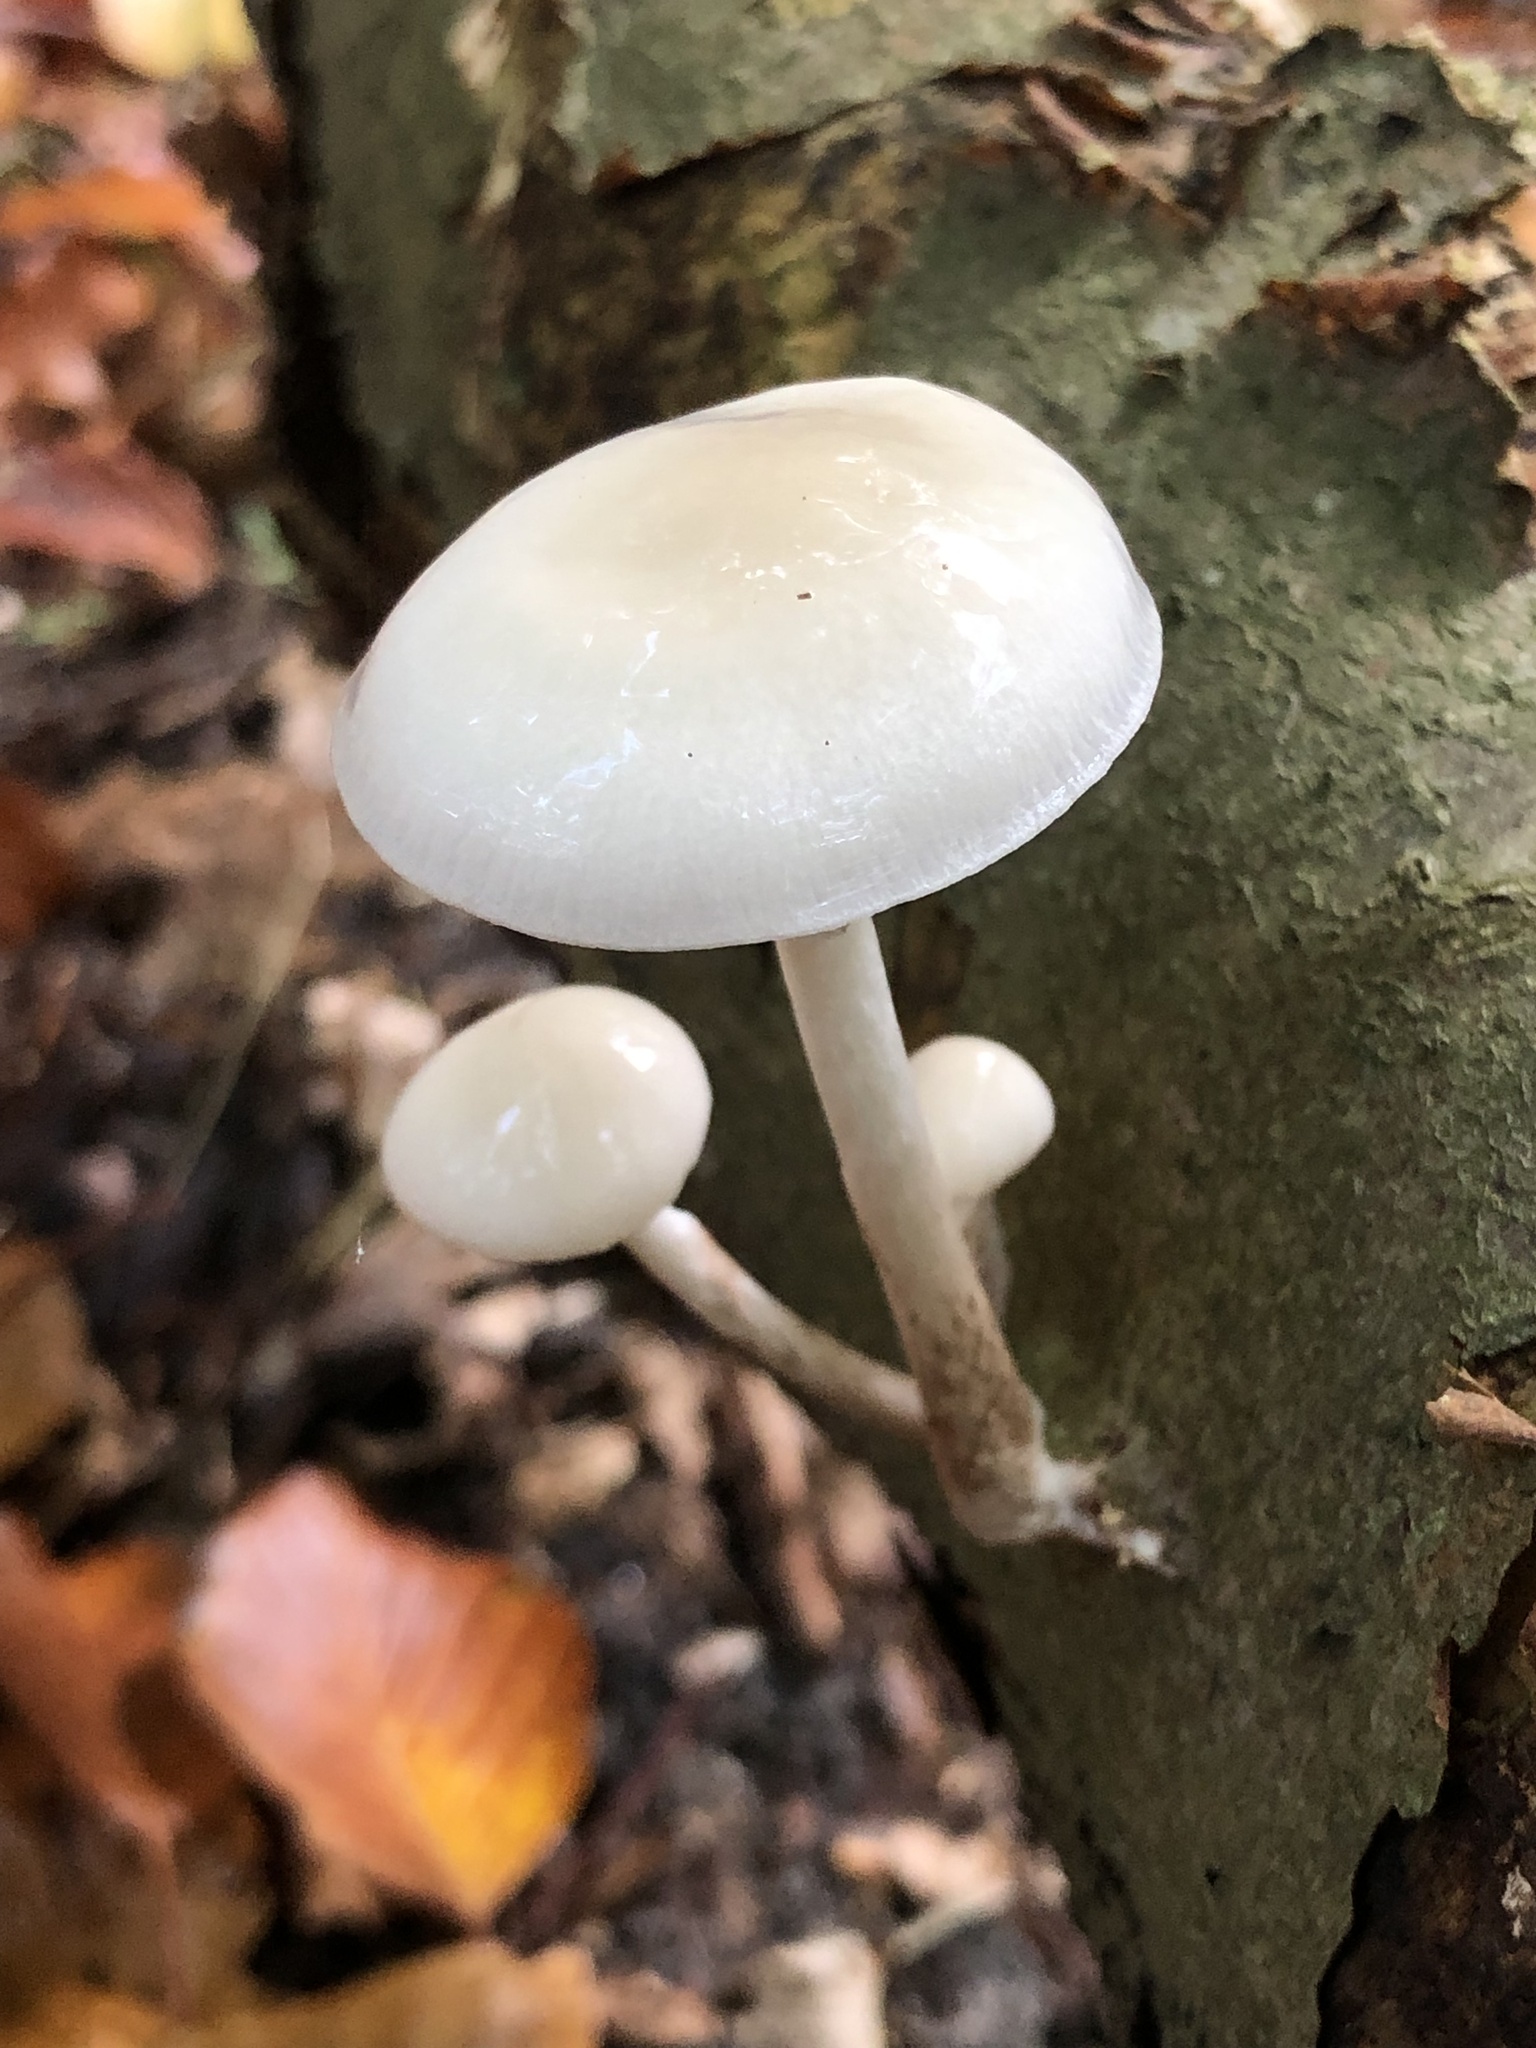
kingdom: Fungi
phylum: Basidiomycota
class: Agaricomycetes
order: Agaricales
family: Physalacriaceae
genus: Mucidula
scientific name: Mucidula mucida
